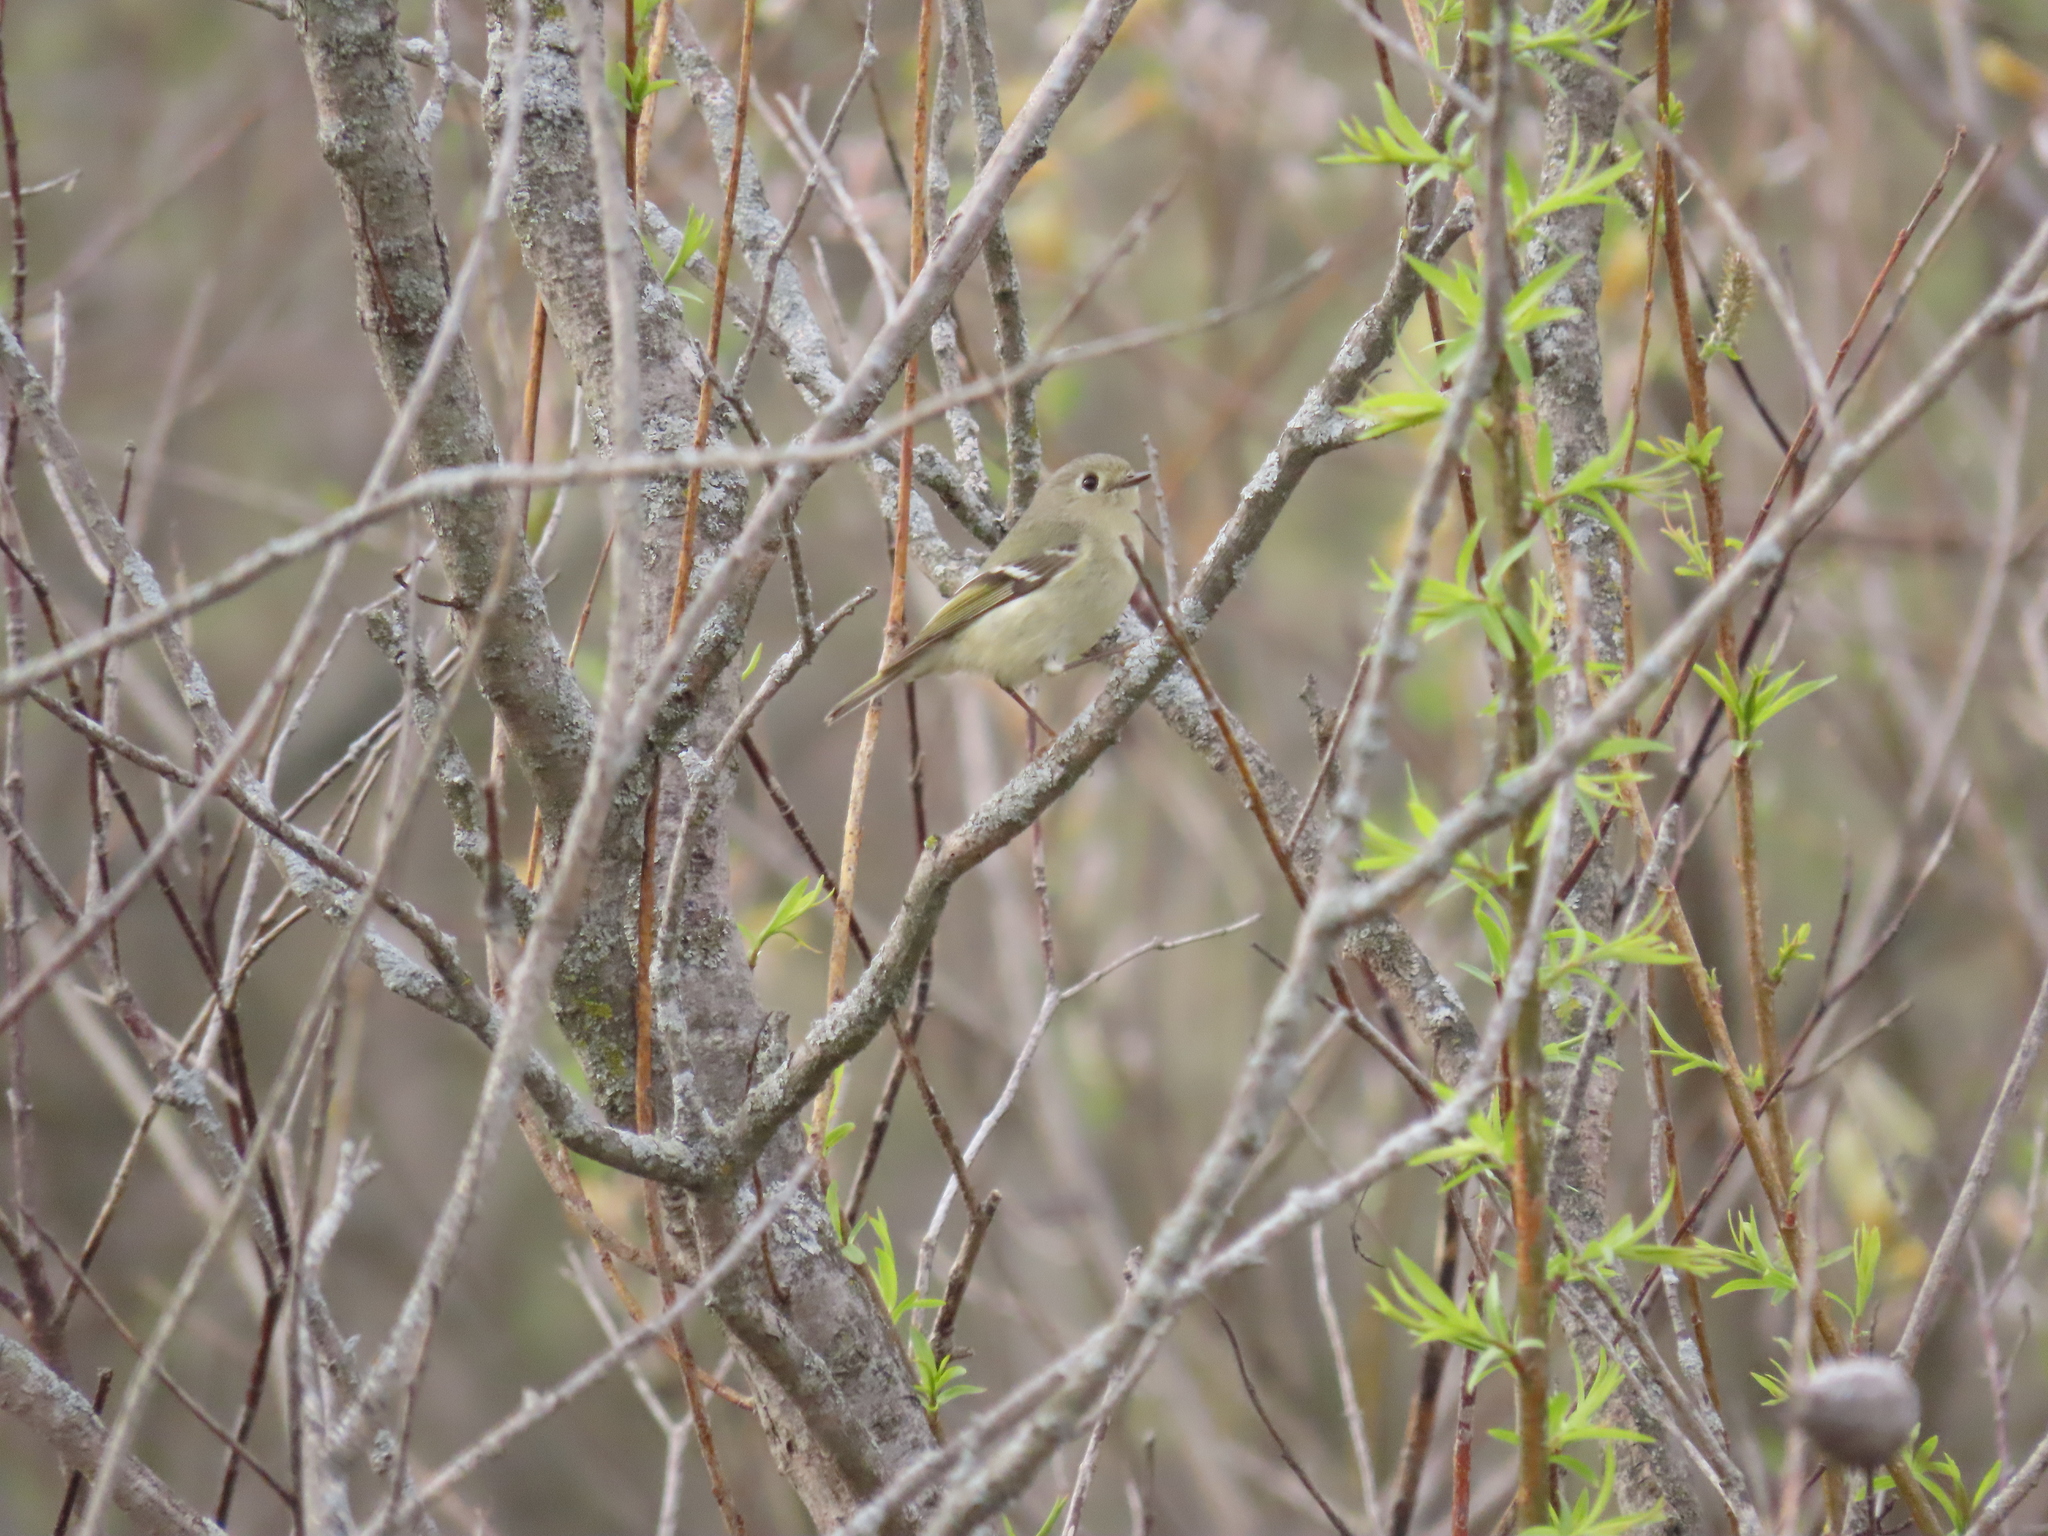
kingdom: Animalia
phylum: Chordata
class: Aves
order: Passeriformes
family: Regulidae
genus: Regulus
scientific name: Regulus calendula
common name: Ruby-crowned kinglet
